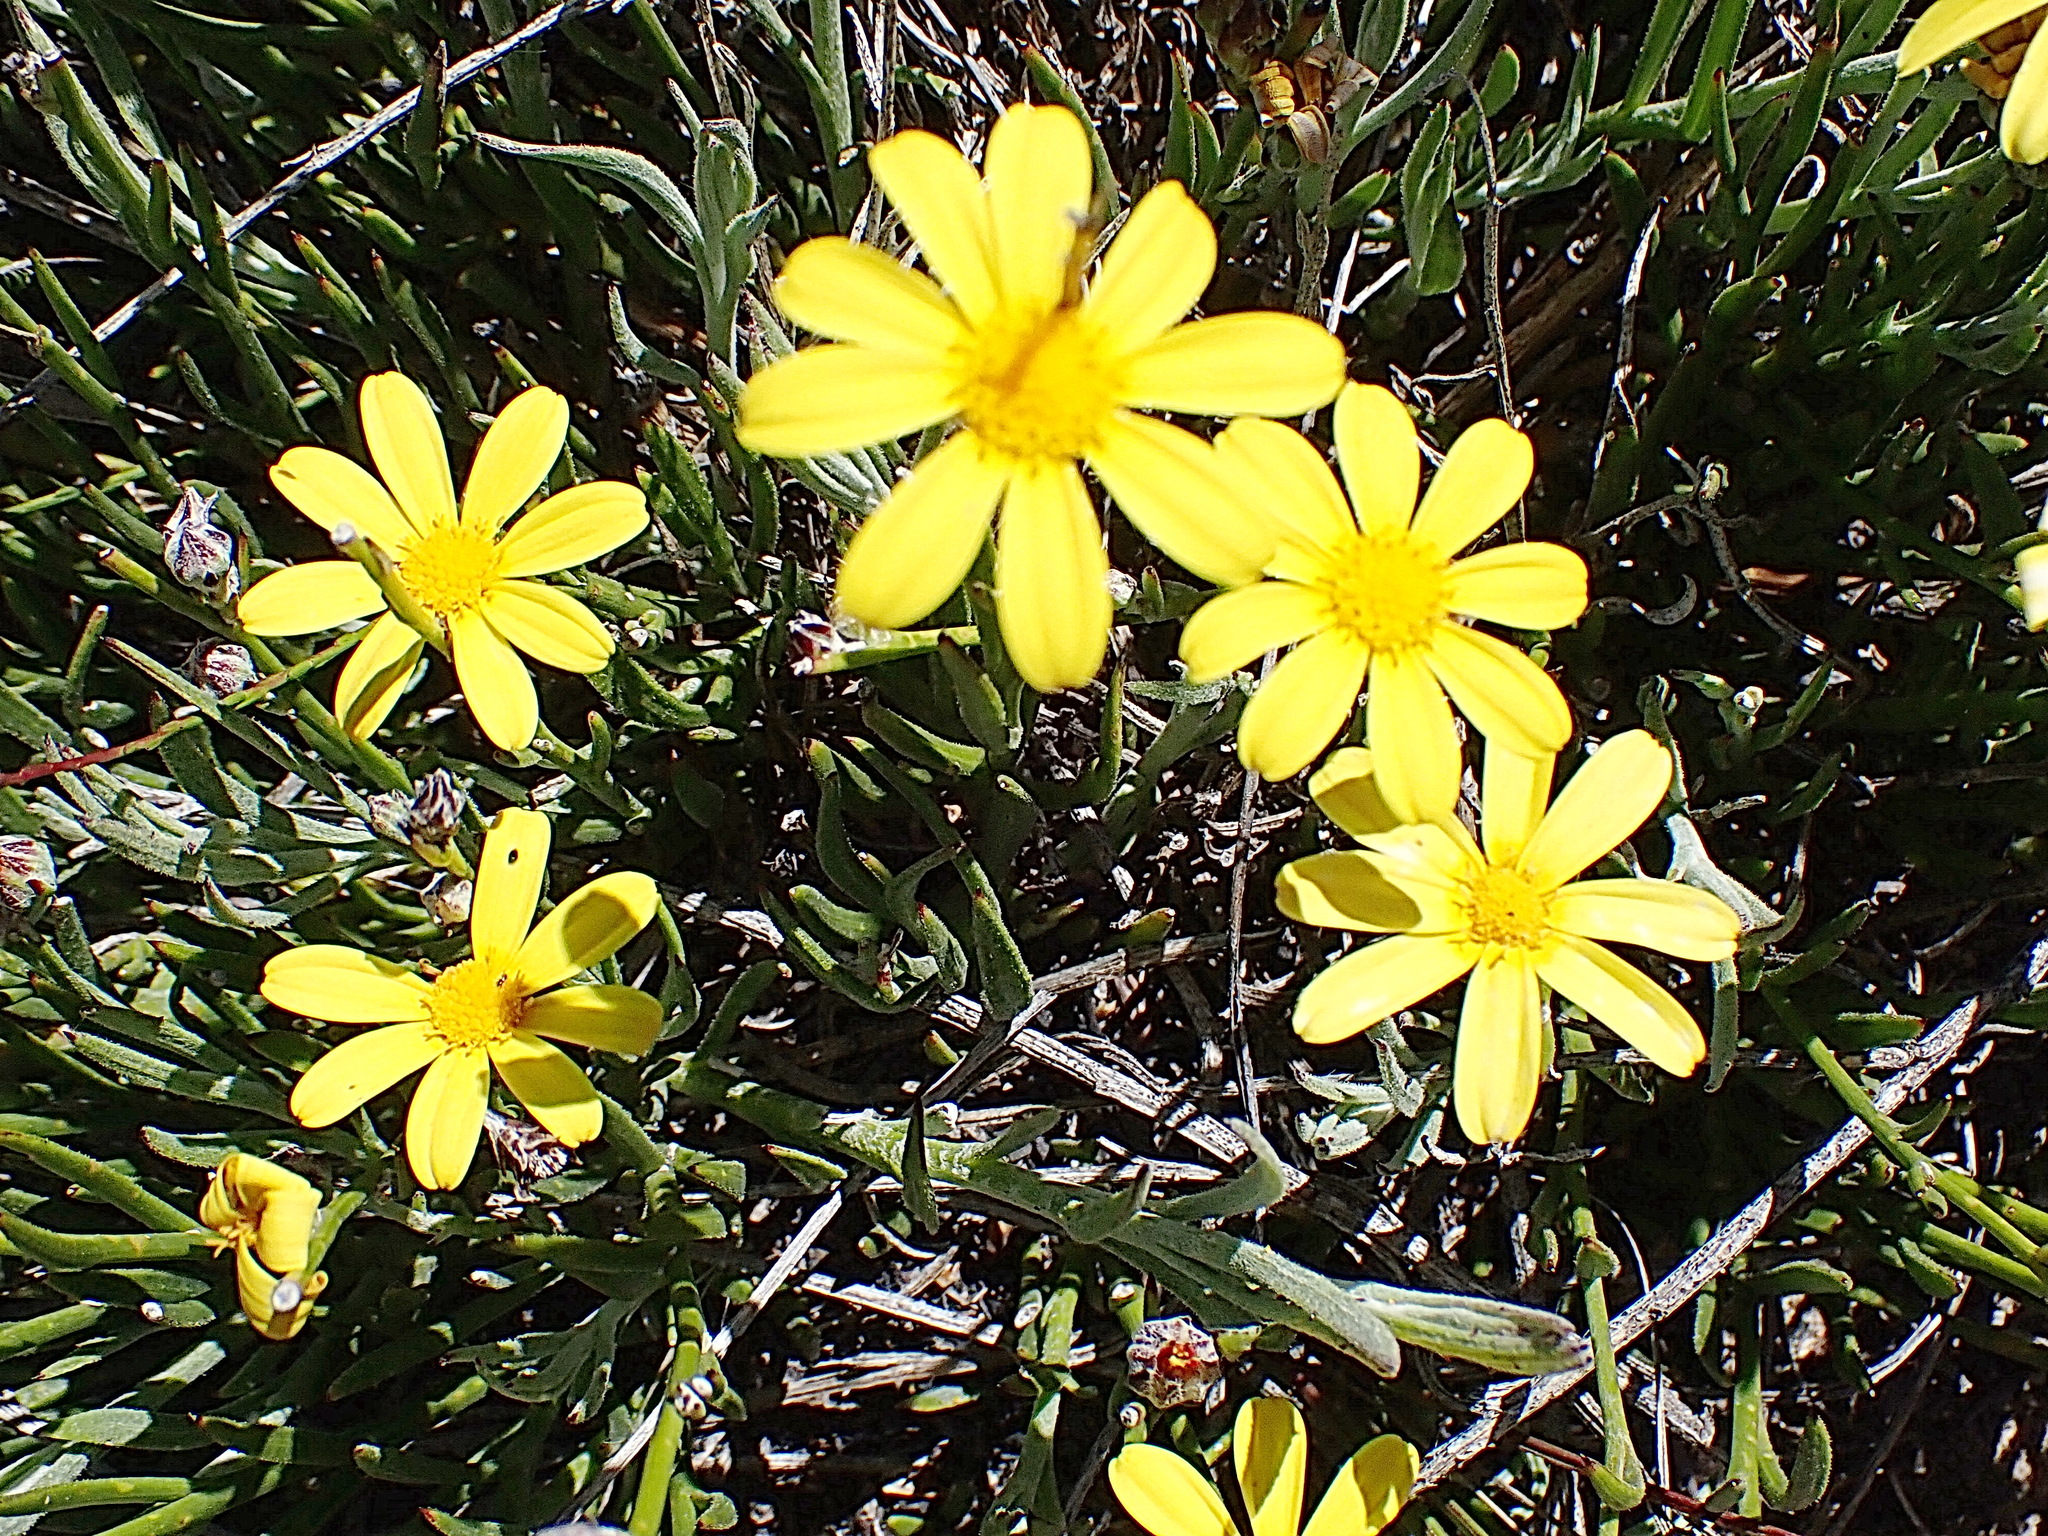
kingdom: Plantae
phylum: Tracheophyta
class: Magnoliopsida
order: Asterales
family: Asteraceae
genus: Osteospermum
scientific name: Osteospermum asperulum
